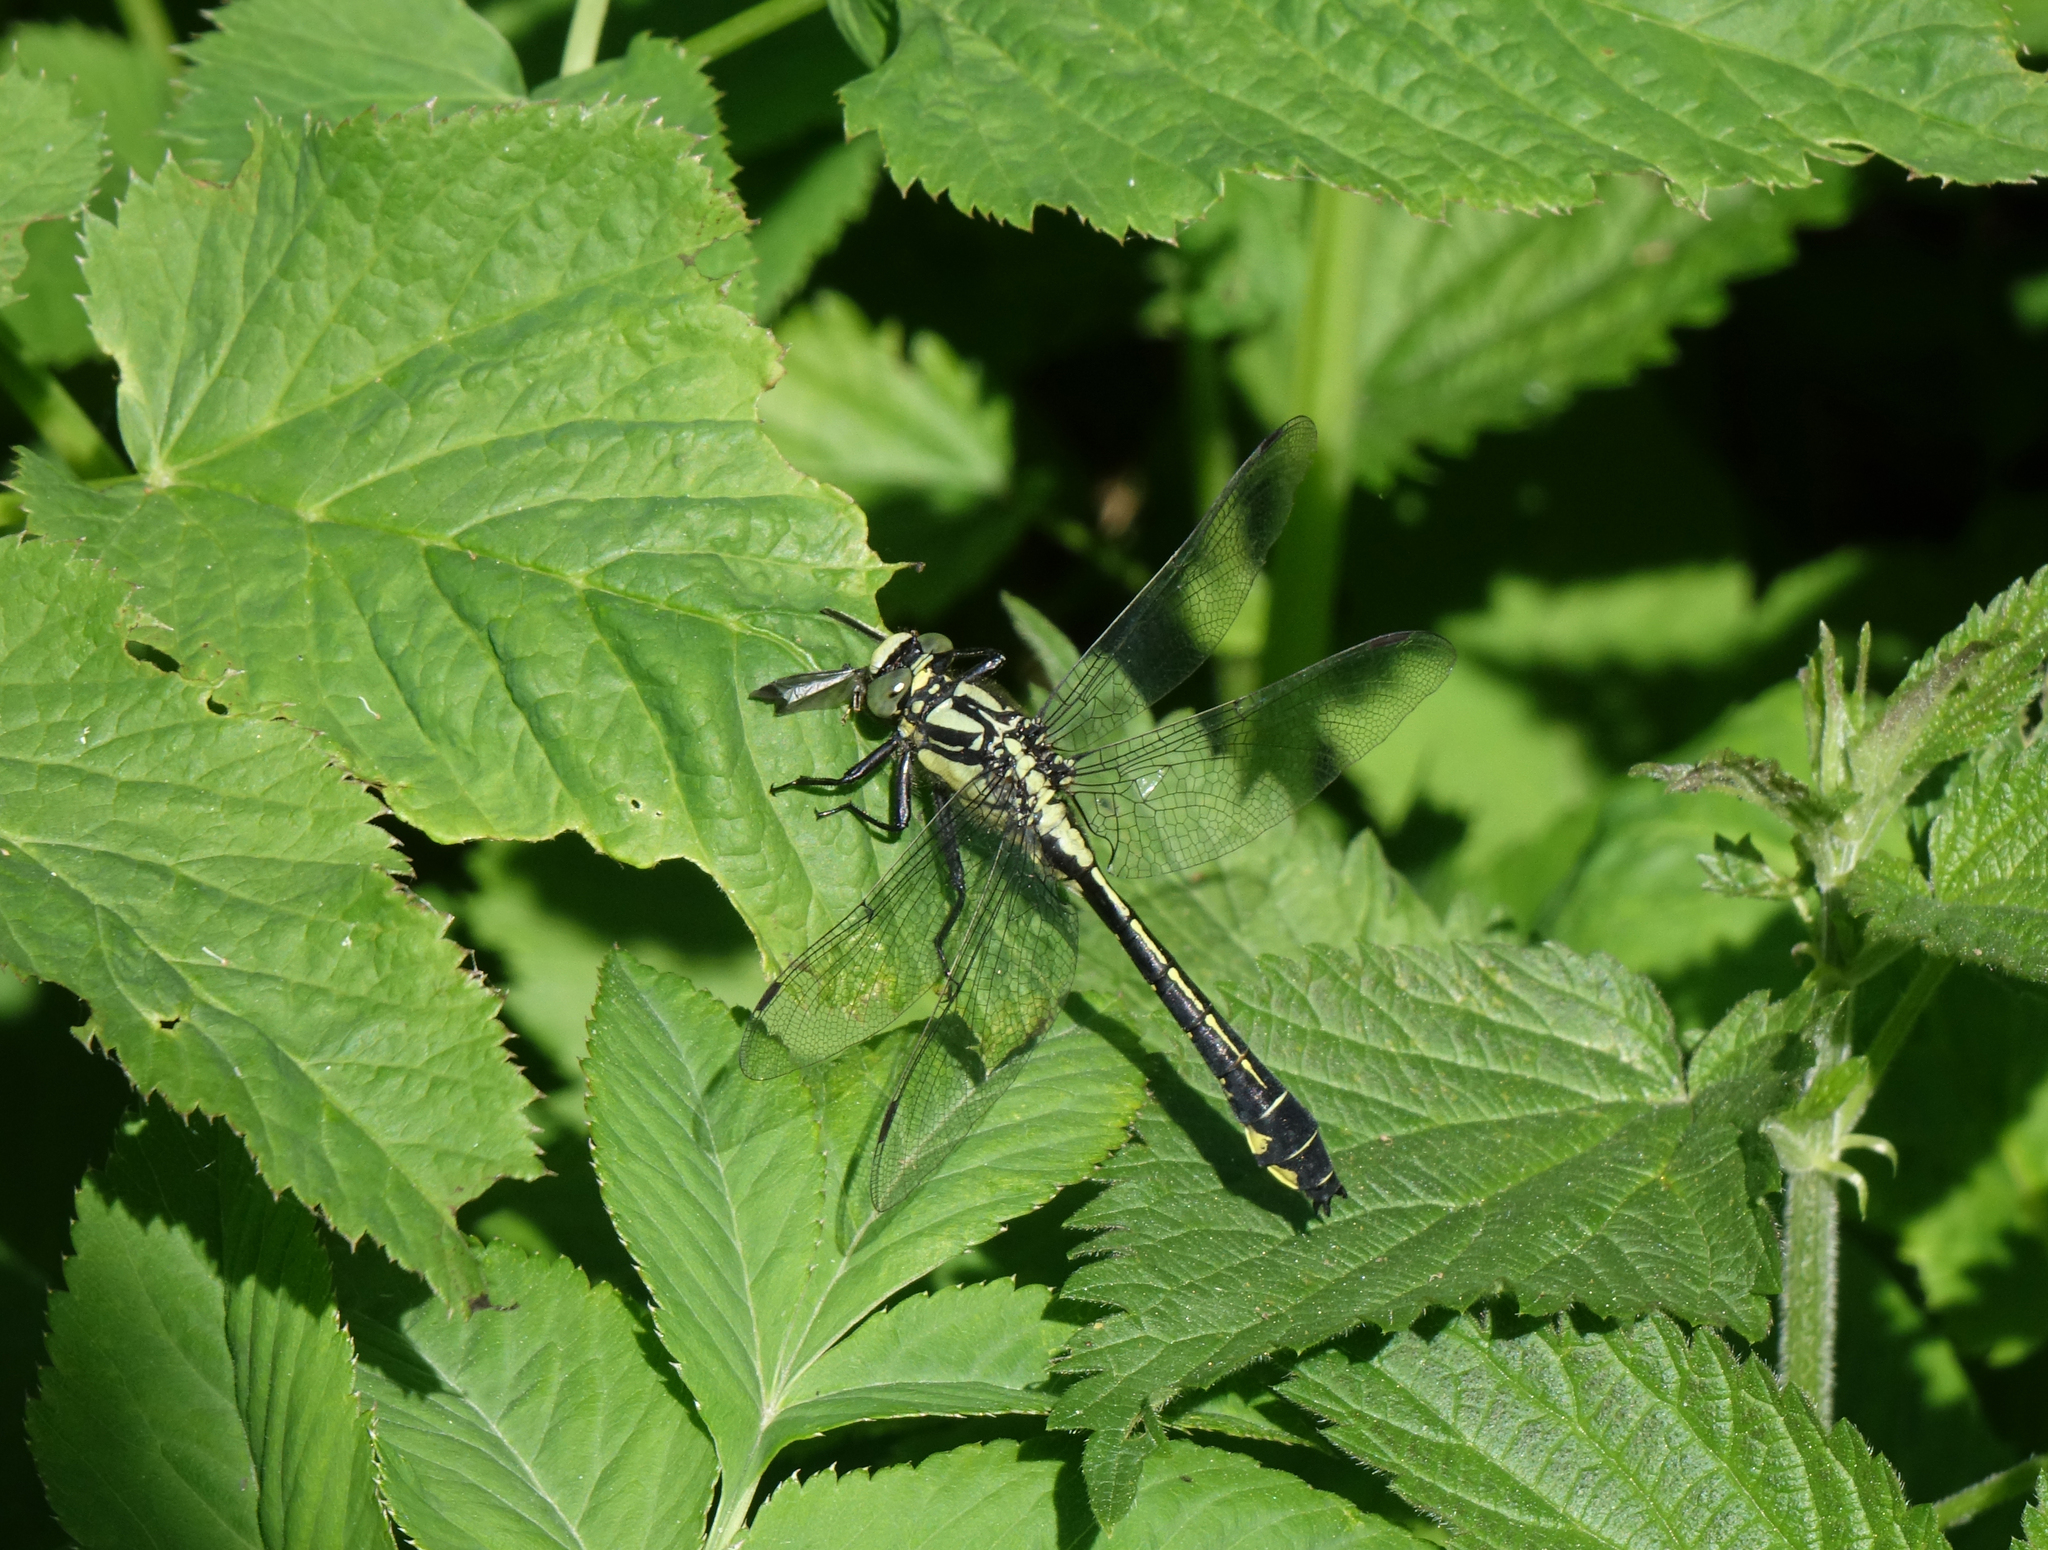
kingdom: Animalia
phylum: Arthropoda
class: Insecta
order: Odonata
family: Gomphidae
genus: Gomphus
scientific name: Gomphus vulgatissimus
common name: Club-tailed dragonfly
